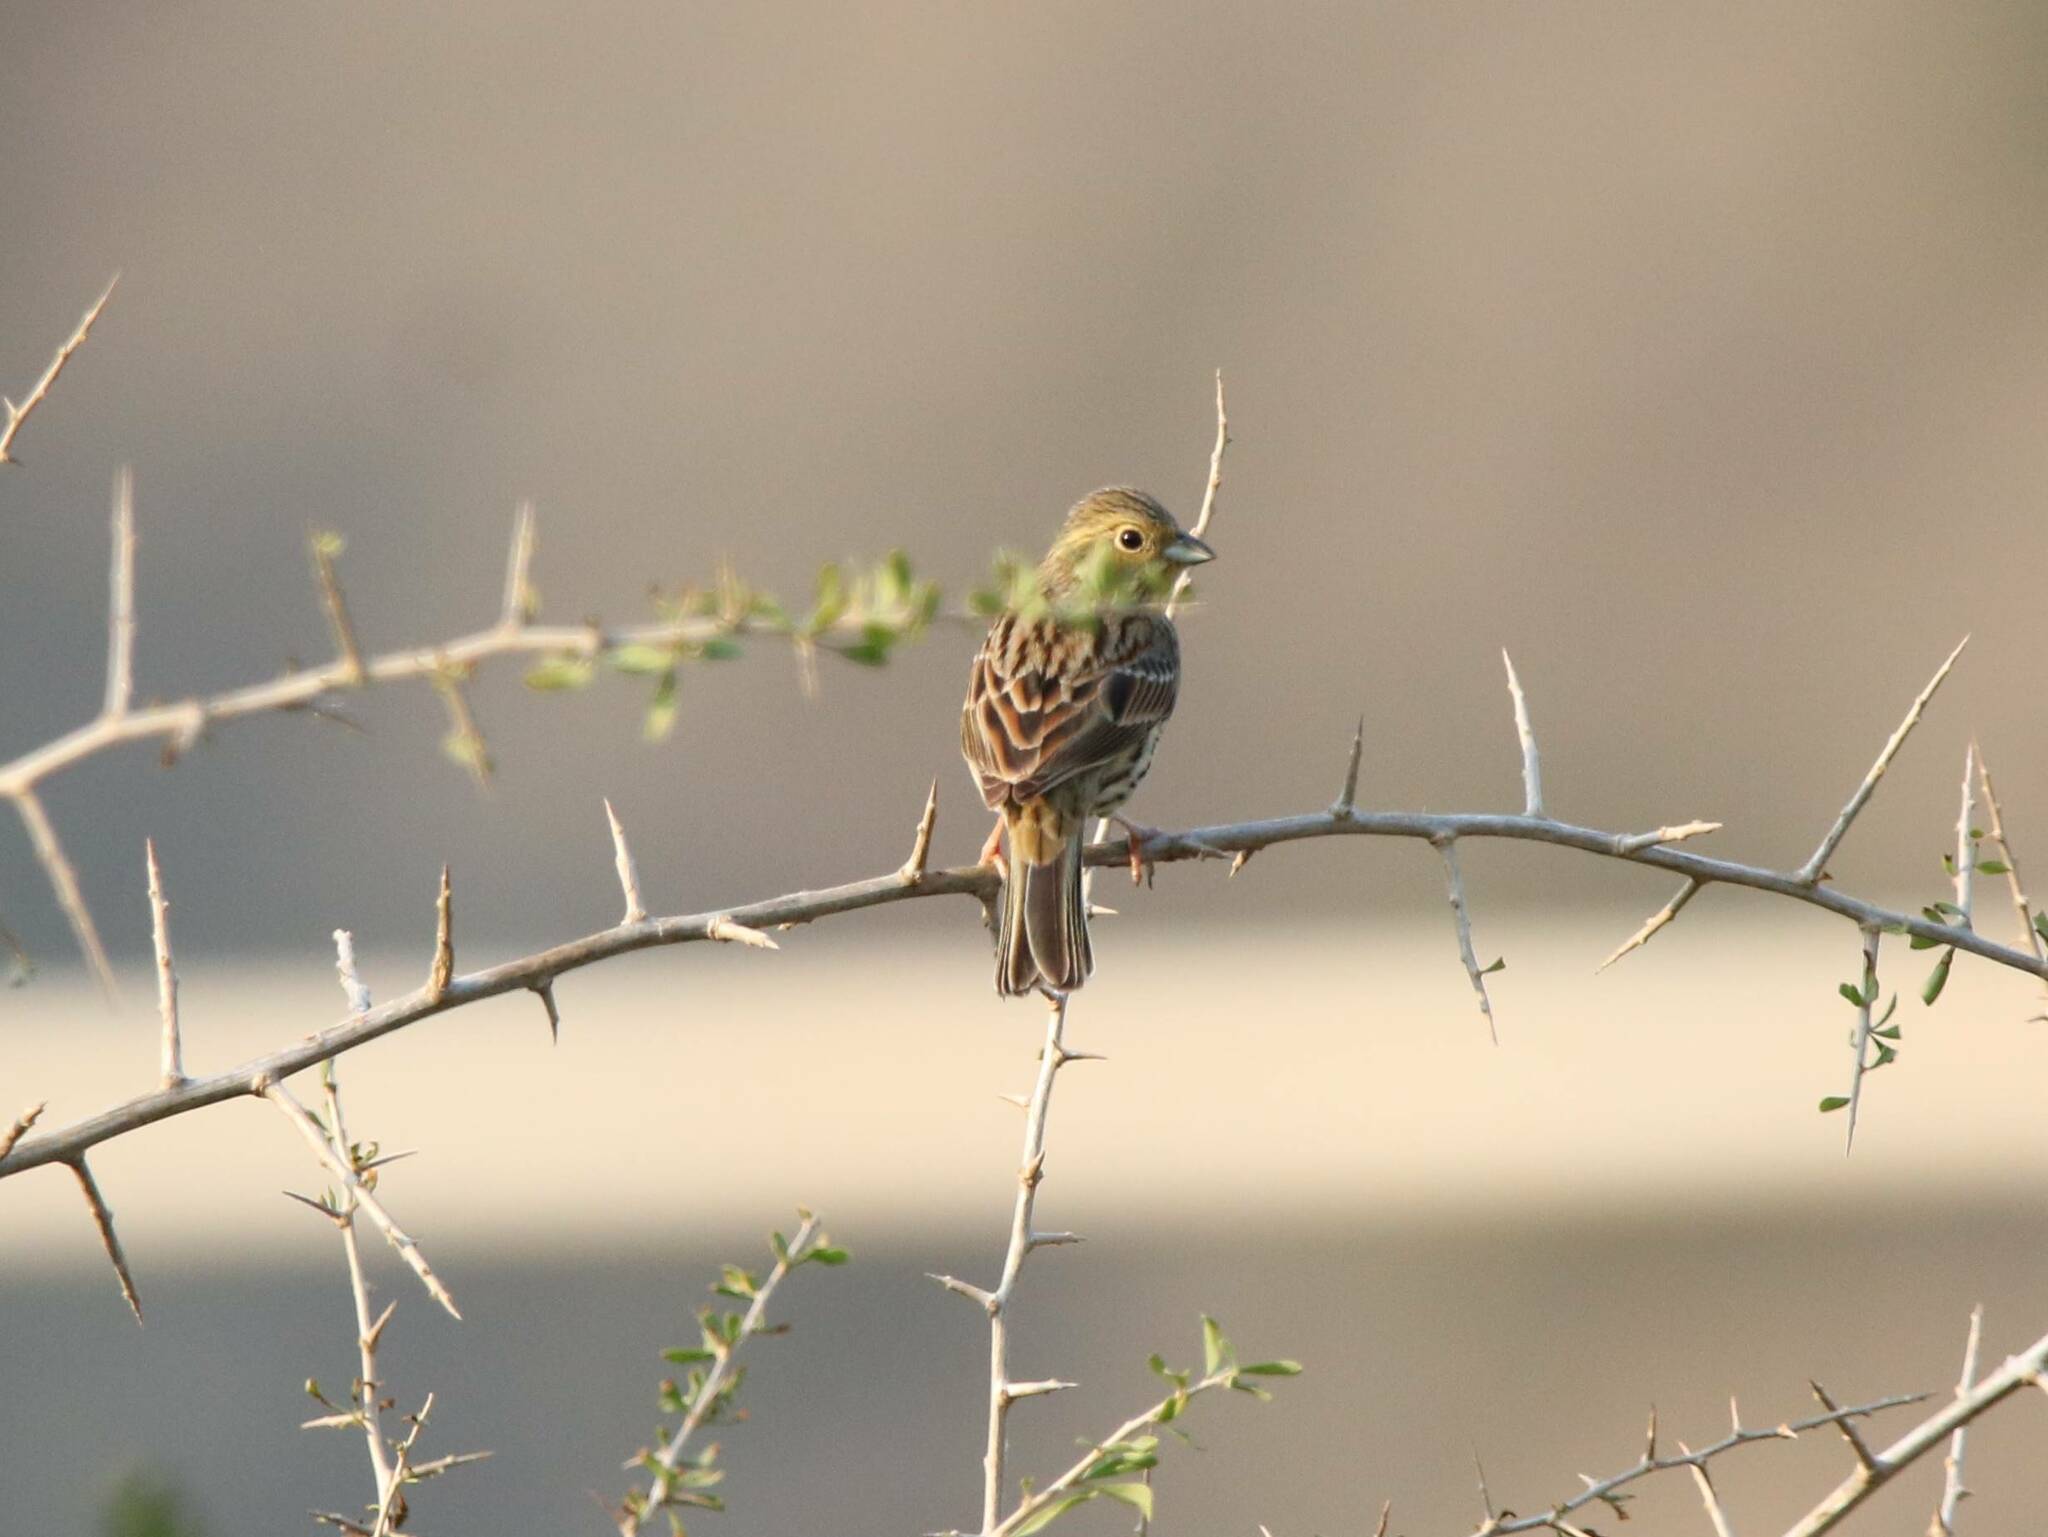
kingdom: Animalia
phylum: Chordata
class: Aves
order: Passeriformes
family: Emberizidae
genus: Emberiza
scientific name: Emberiza cirlus
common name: Cirl bunting
